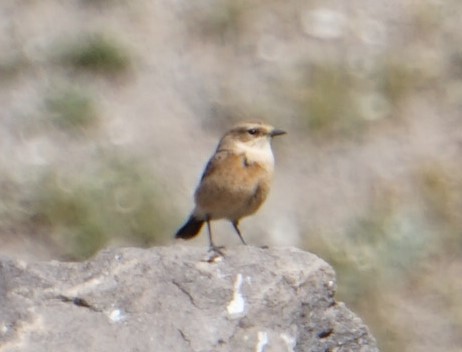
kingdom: Animalia
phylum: Chordata
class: Aves
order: Passeriformes
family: Muscicapidae
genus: Saxicola
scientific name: Saxicola maurus
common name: Siberian stonechat
